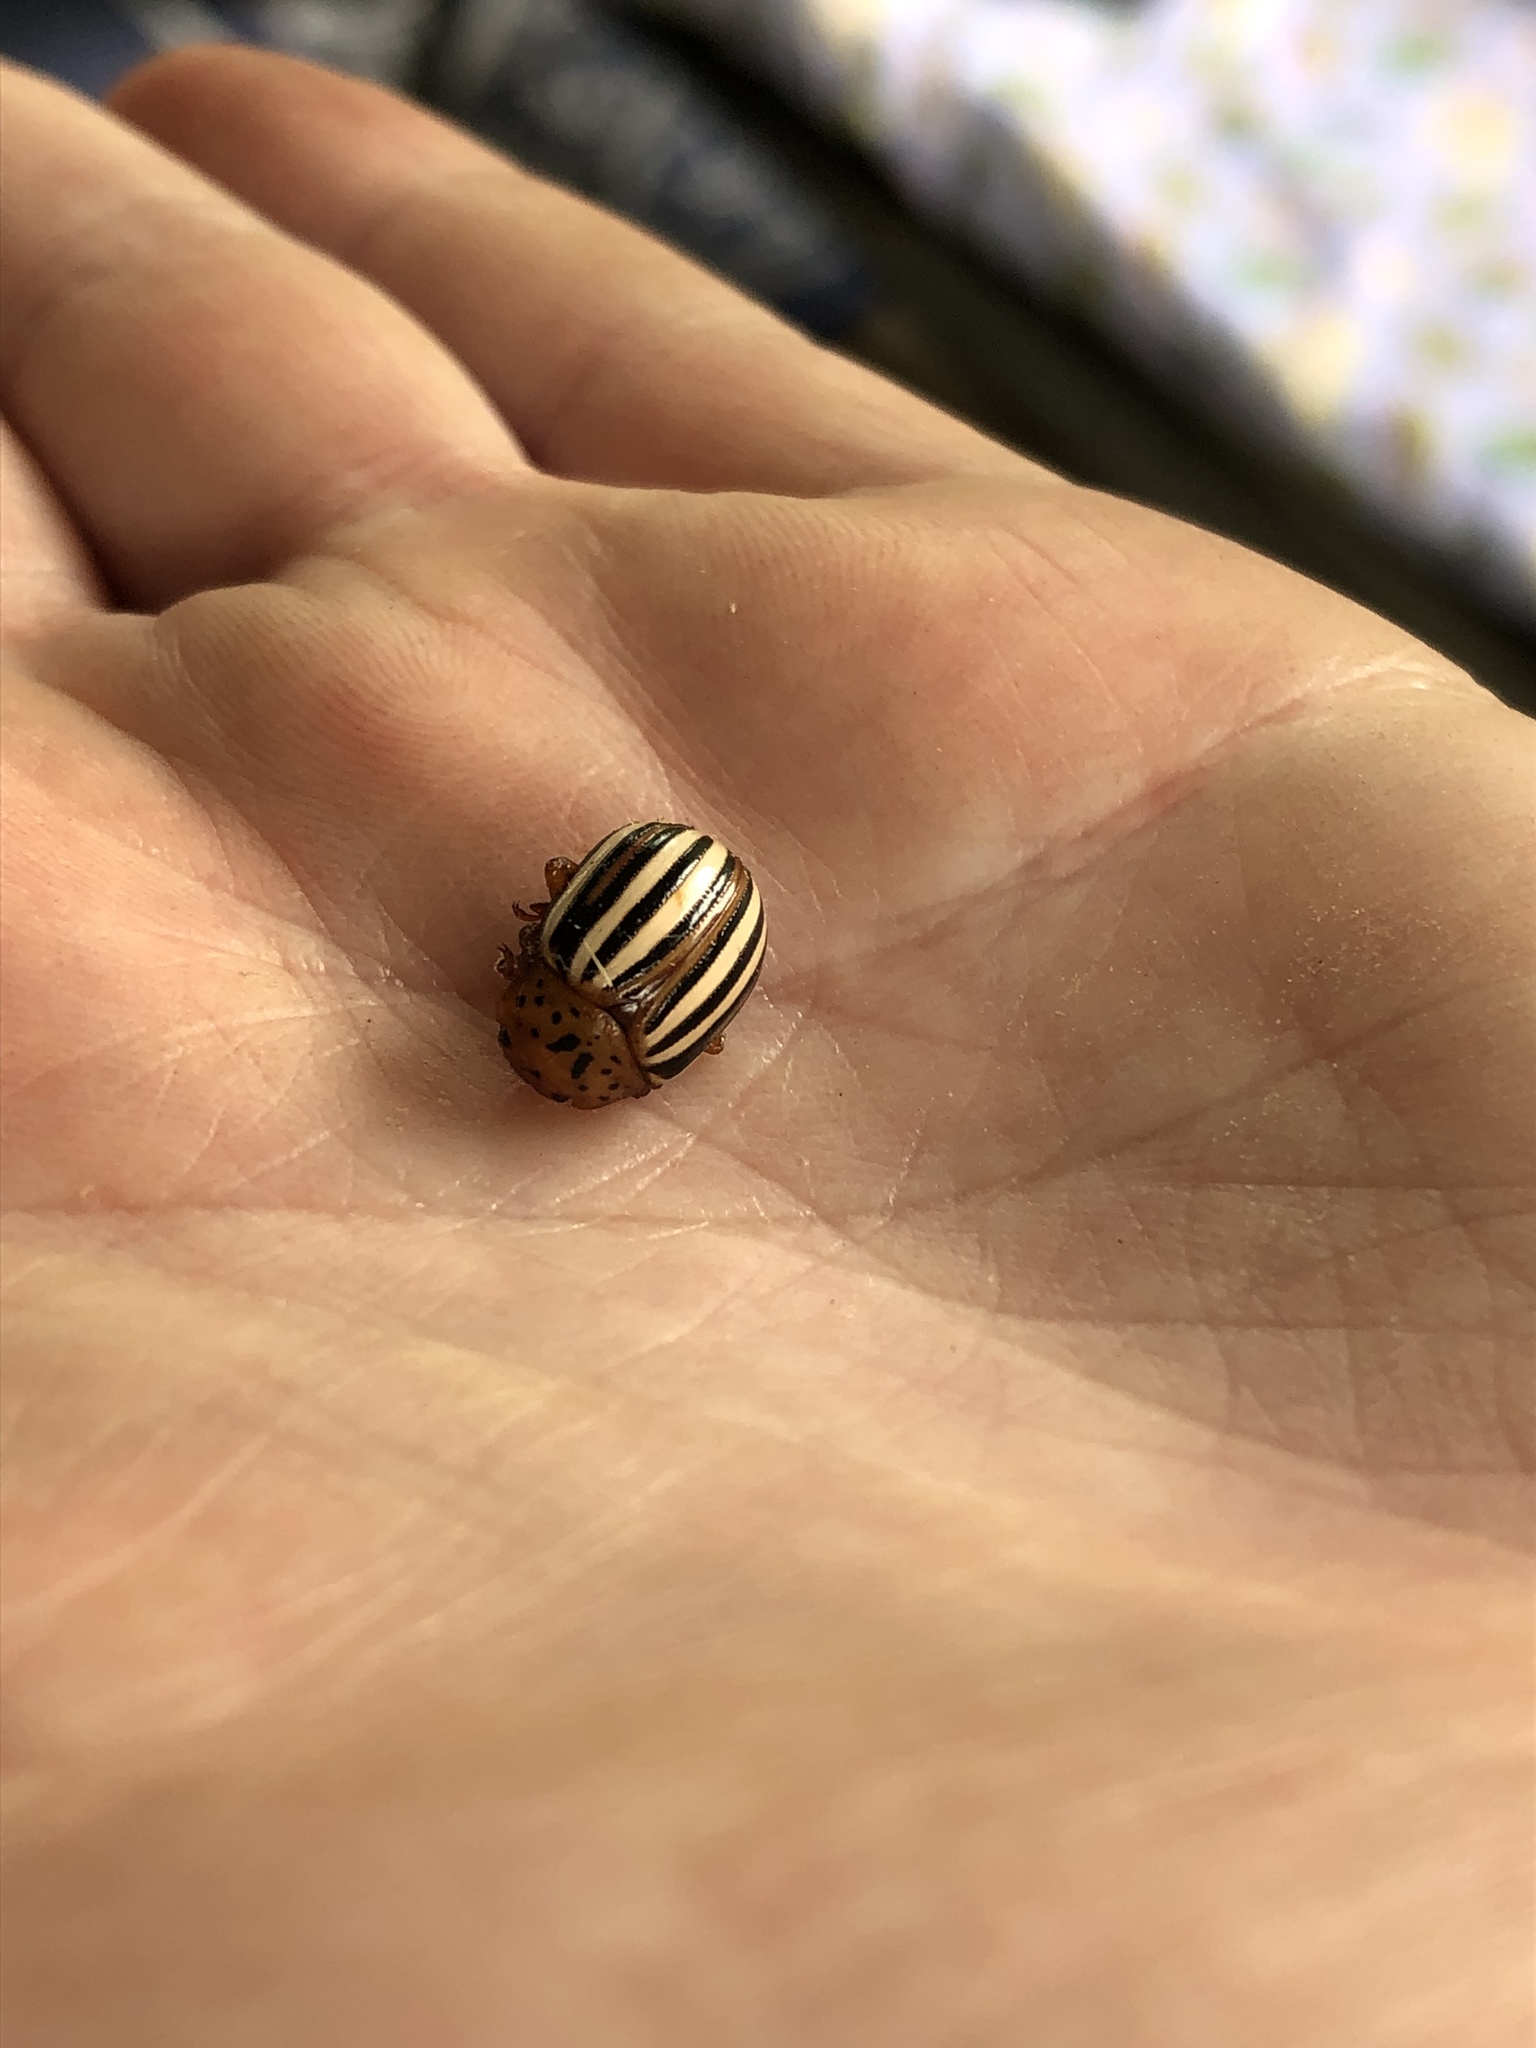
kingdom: Animalia
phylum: Arthropoda
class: Insecta
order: Coleoptera
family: Chrysomelidae
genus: Leptinotarsa
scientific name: Leptinotarsa juncta
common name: False potato beetle
